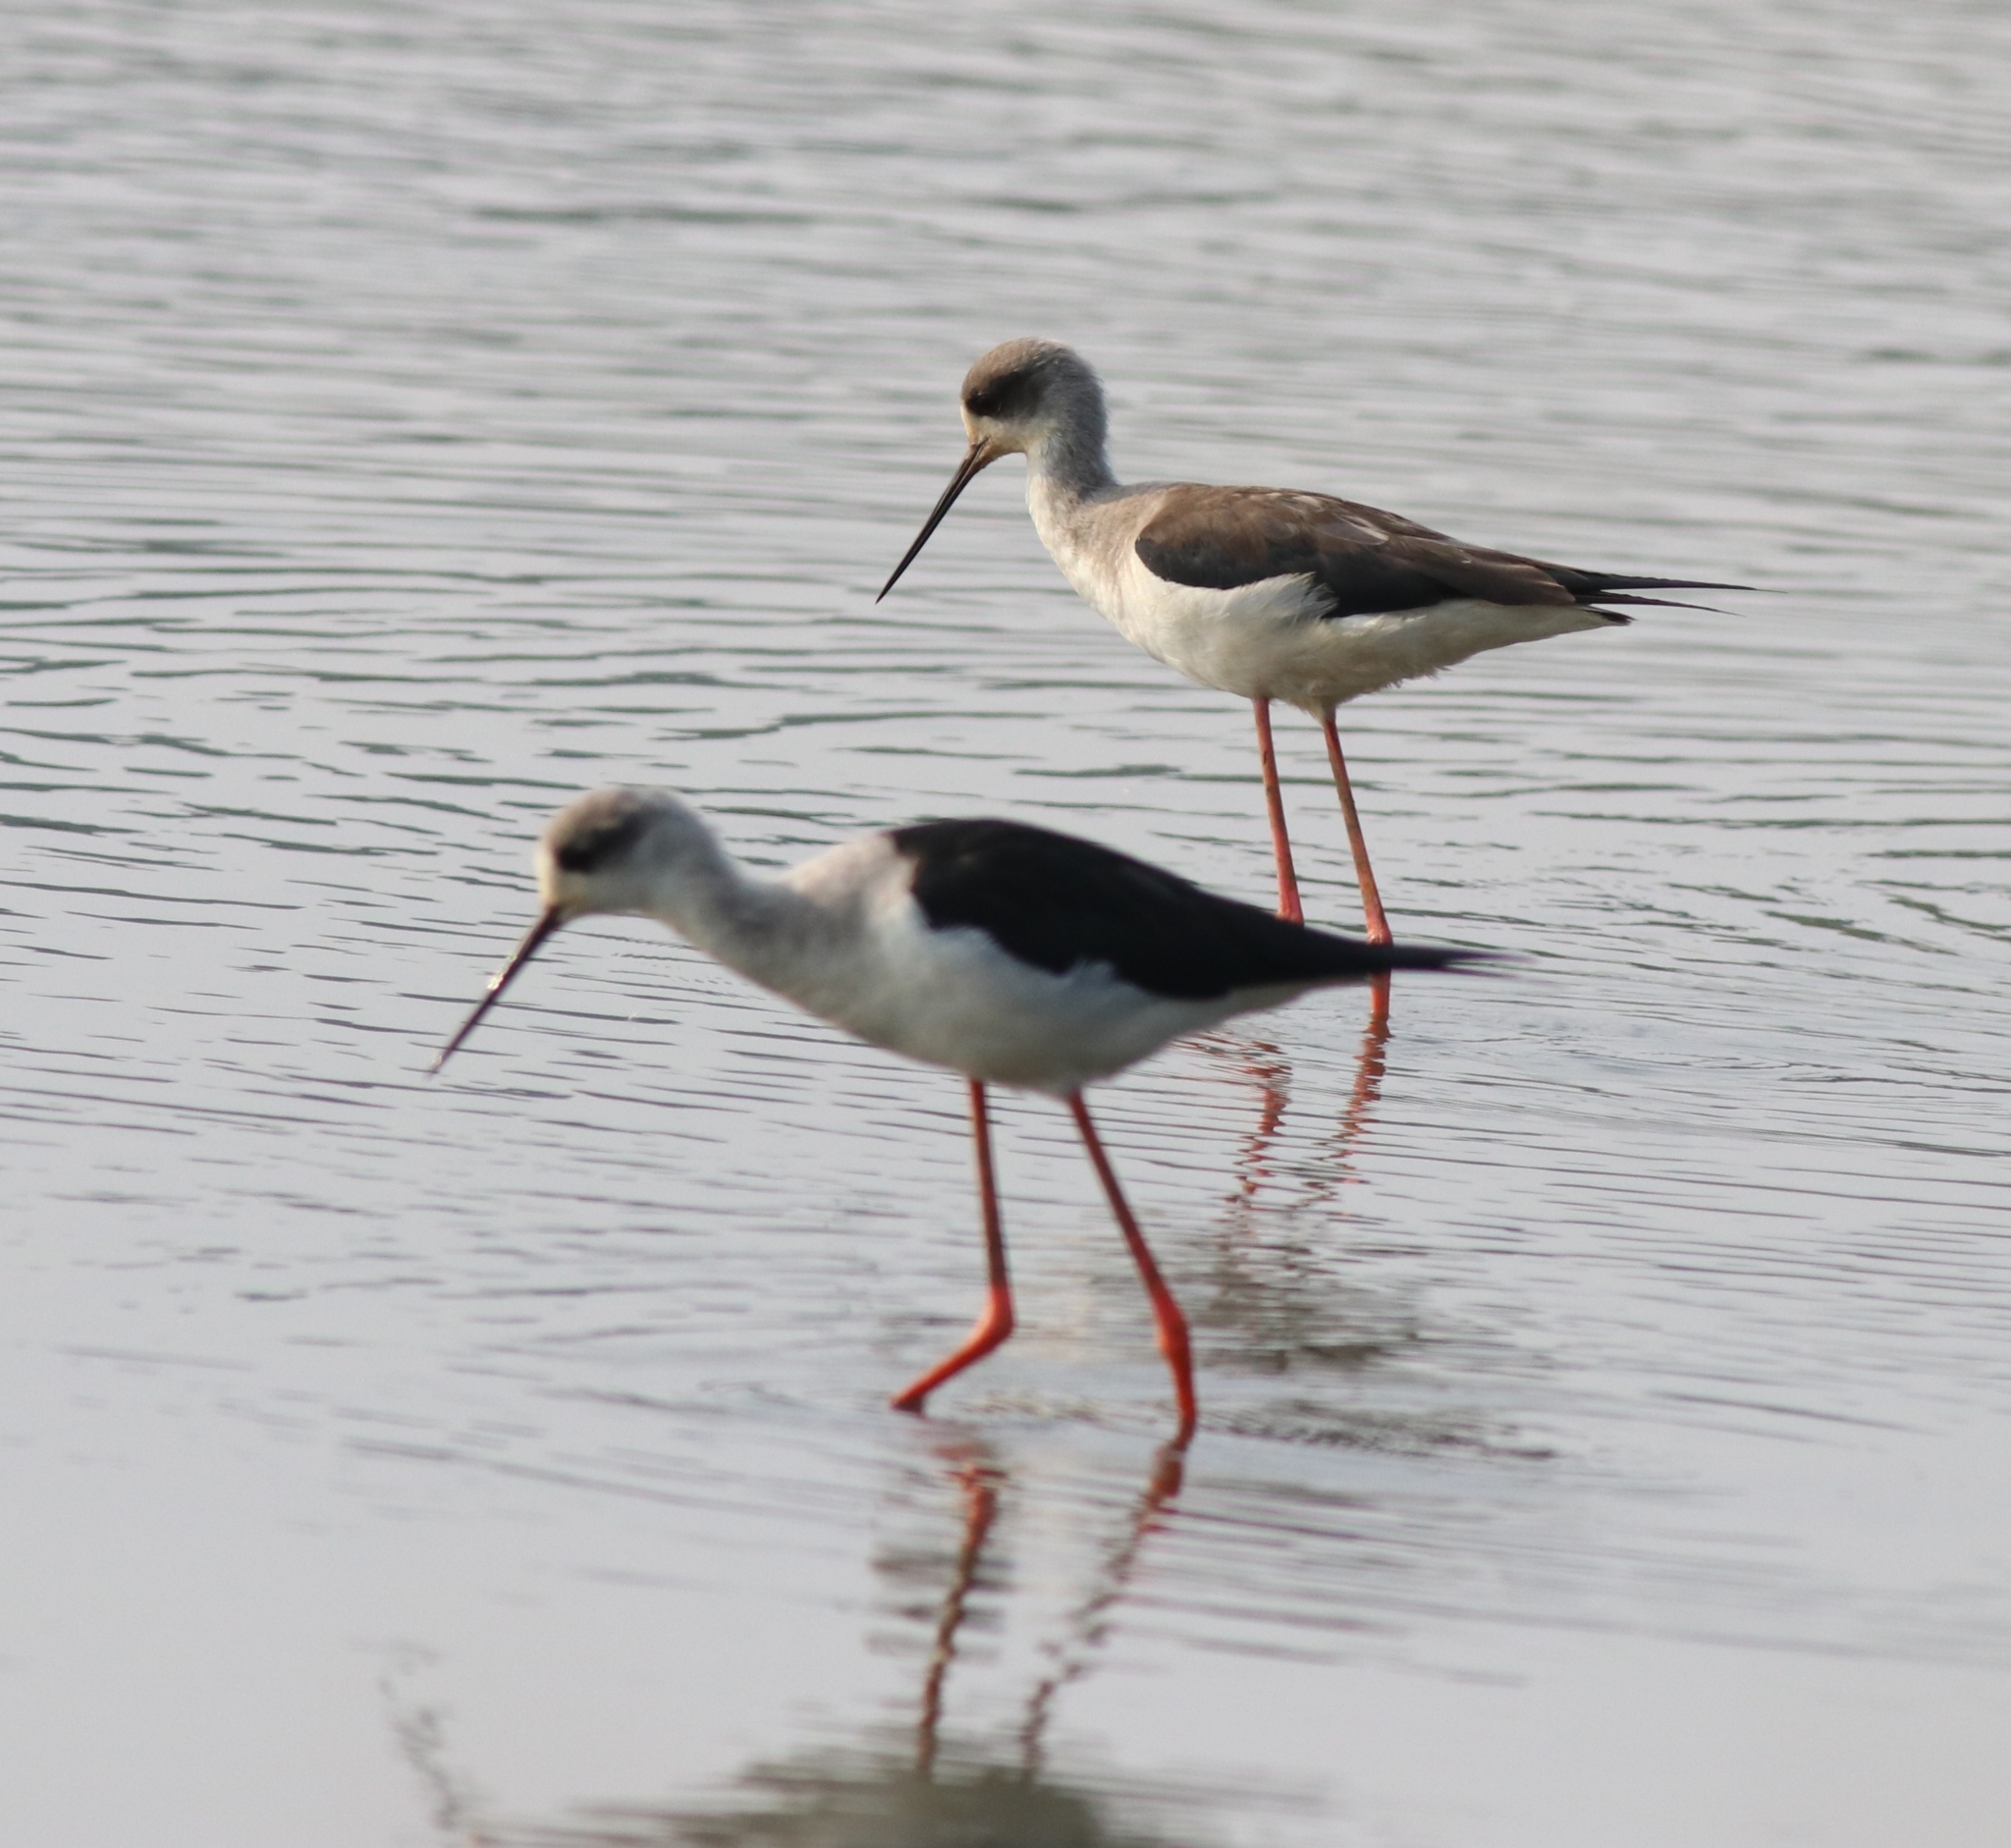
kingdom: Animalia
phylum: Chordata
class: Aves
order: Charadriiformes
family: Recurvirostridae
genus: Himantopus
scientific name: Himantopus himantopus
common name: Black-winged stilt
